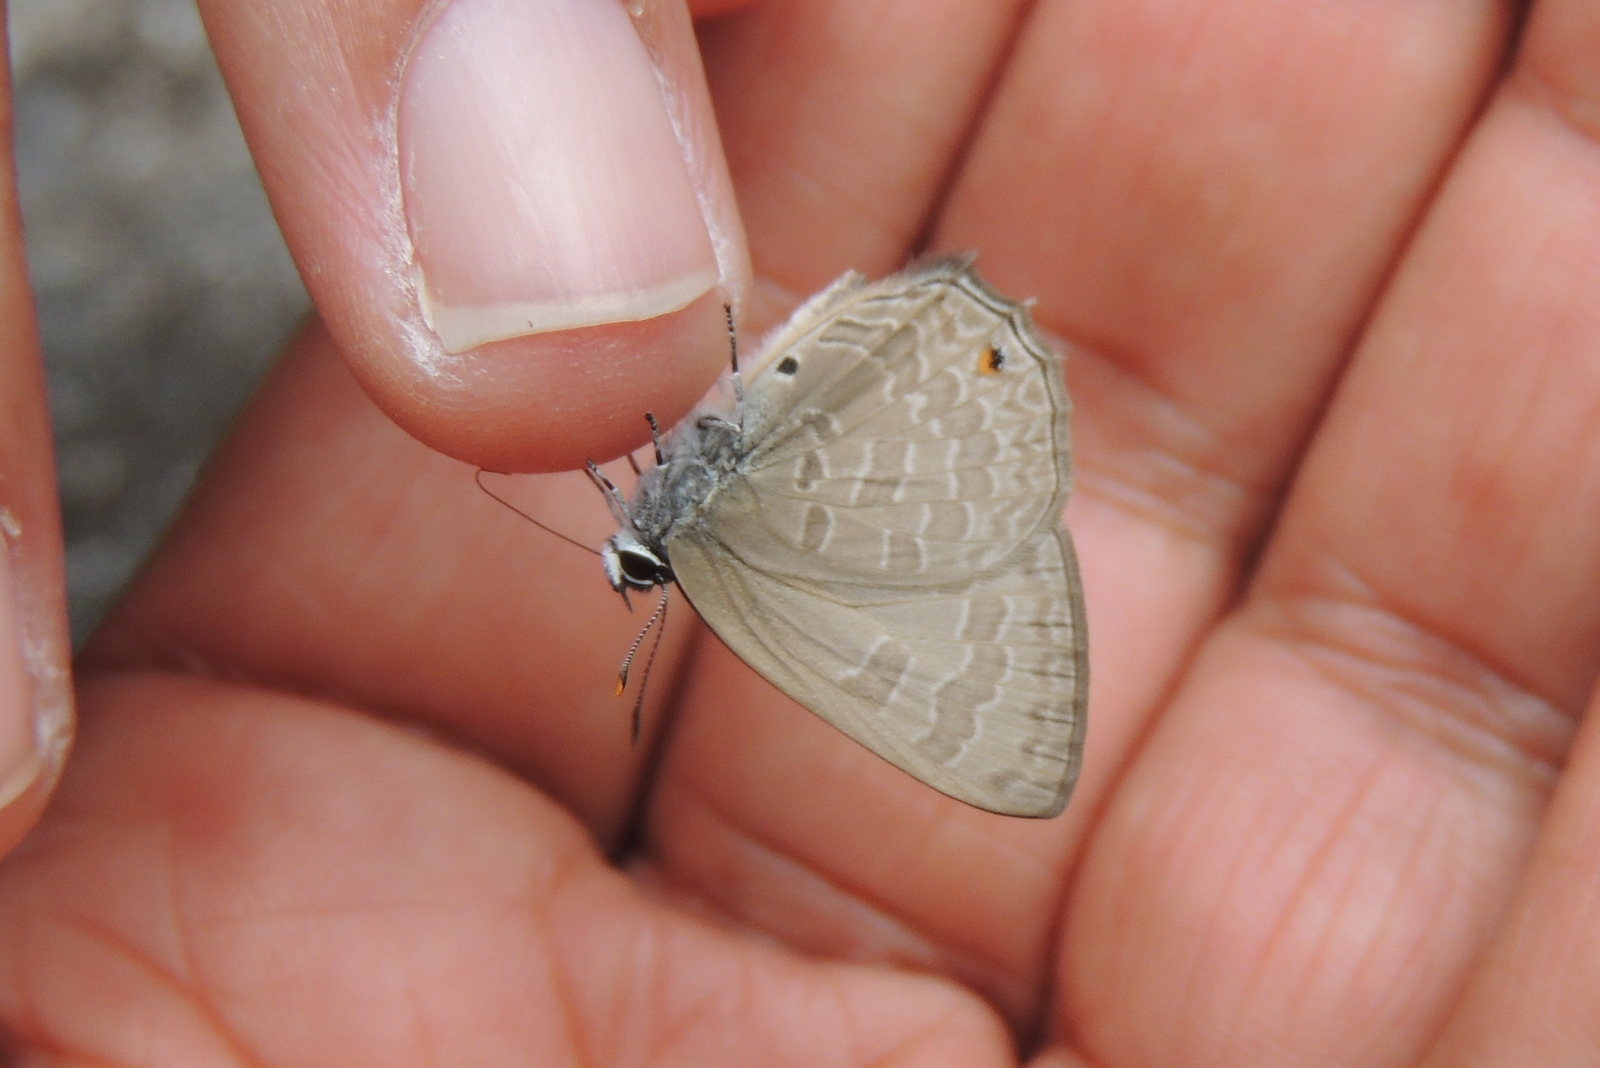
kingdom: Animalia
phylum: Arthropoda
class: Insecta
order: Lepidoptera
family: Lycaenidae
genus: Anthene
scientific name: Anthene emolus
